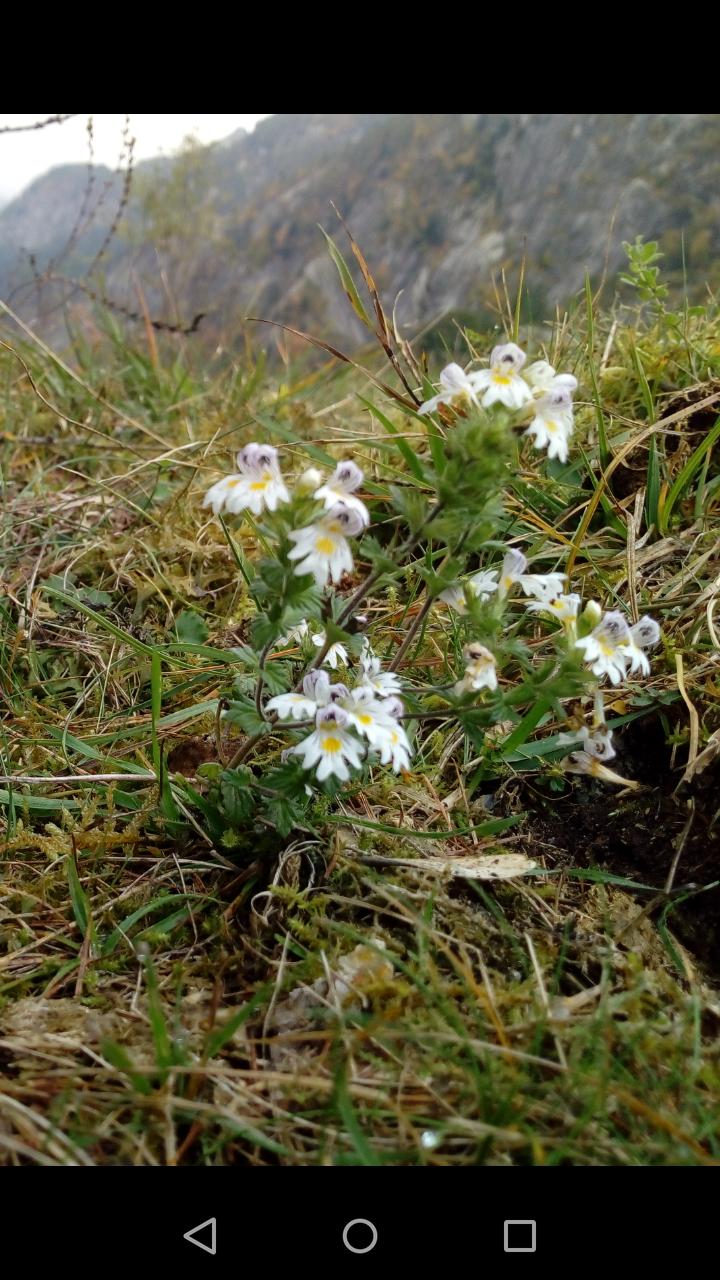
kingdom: Plantae
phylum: Tracheophyta
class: Magnoliopsida
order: Lamiales
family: Orobanchaceae
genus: Euphrasia
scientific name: Euphrasia officinalis
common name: Eyebright
